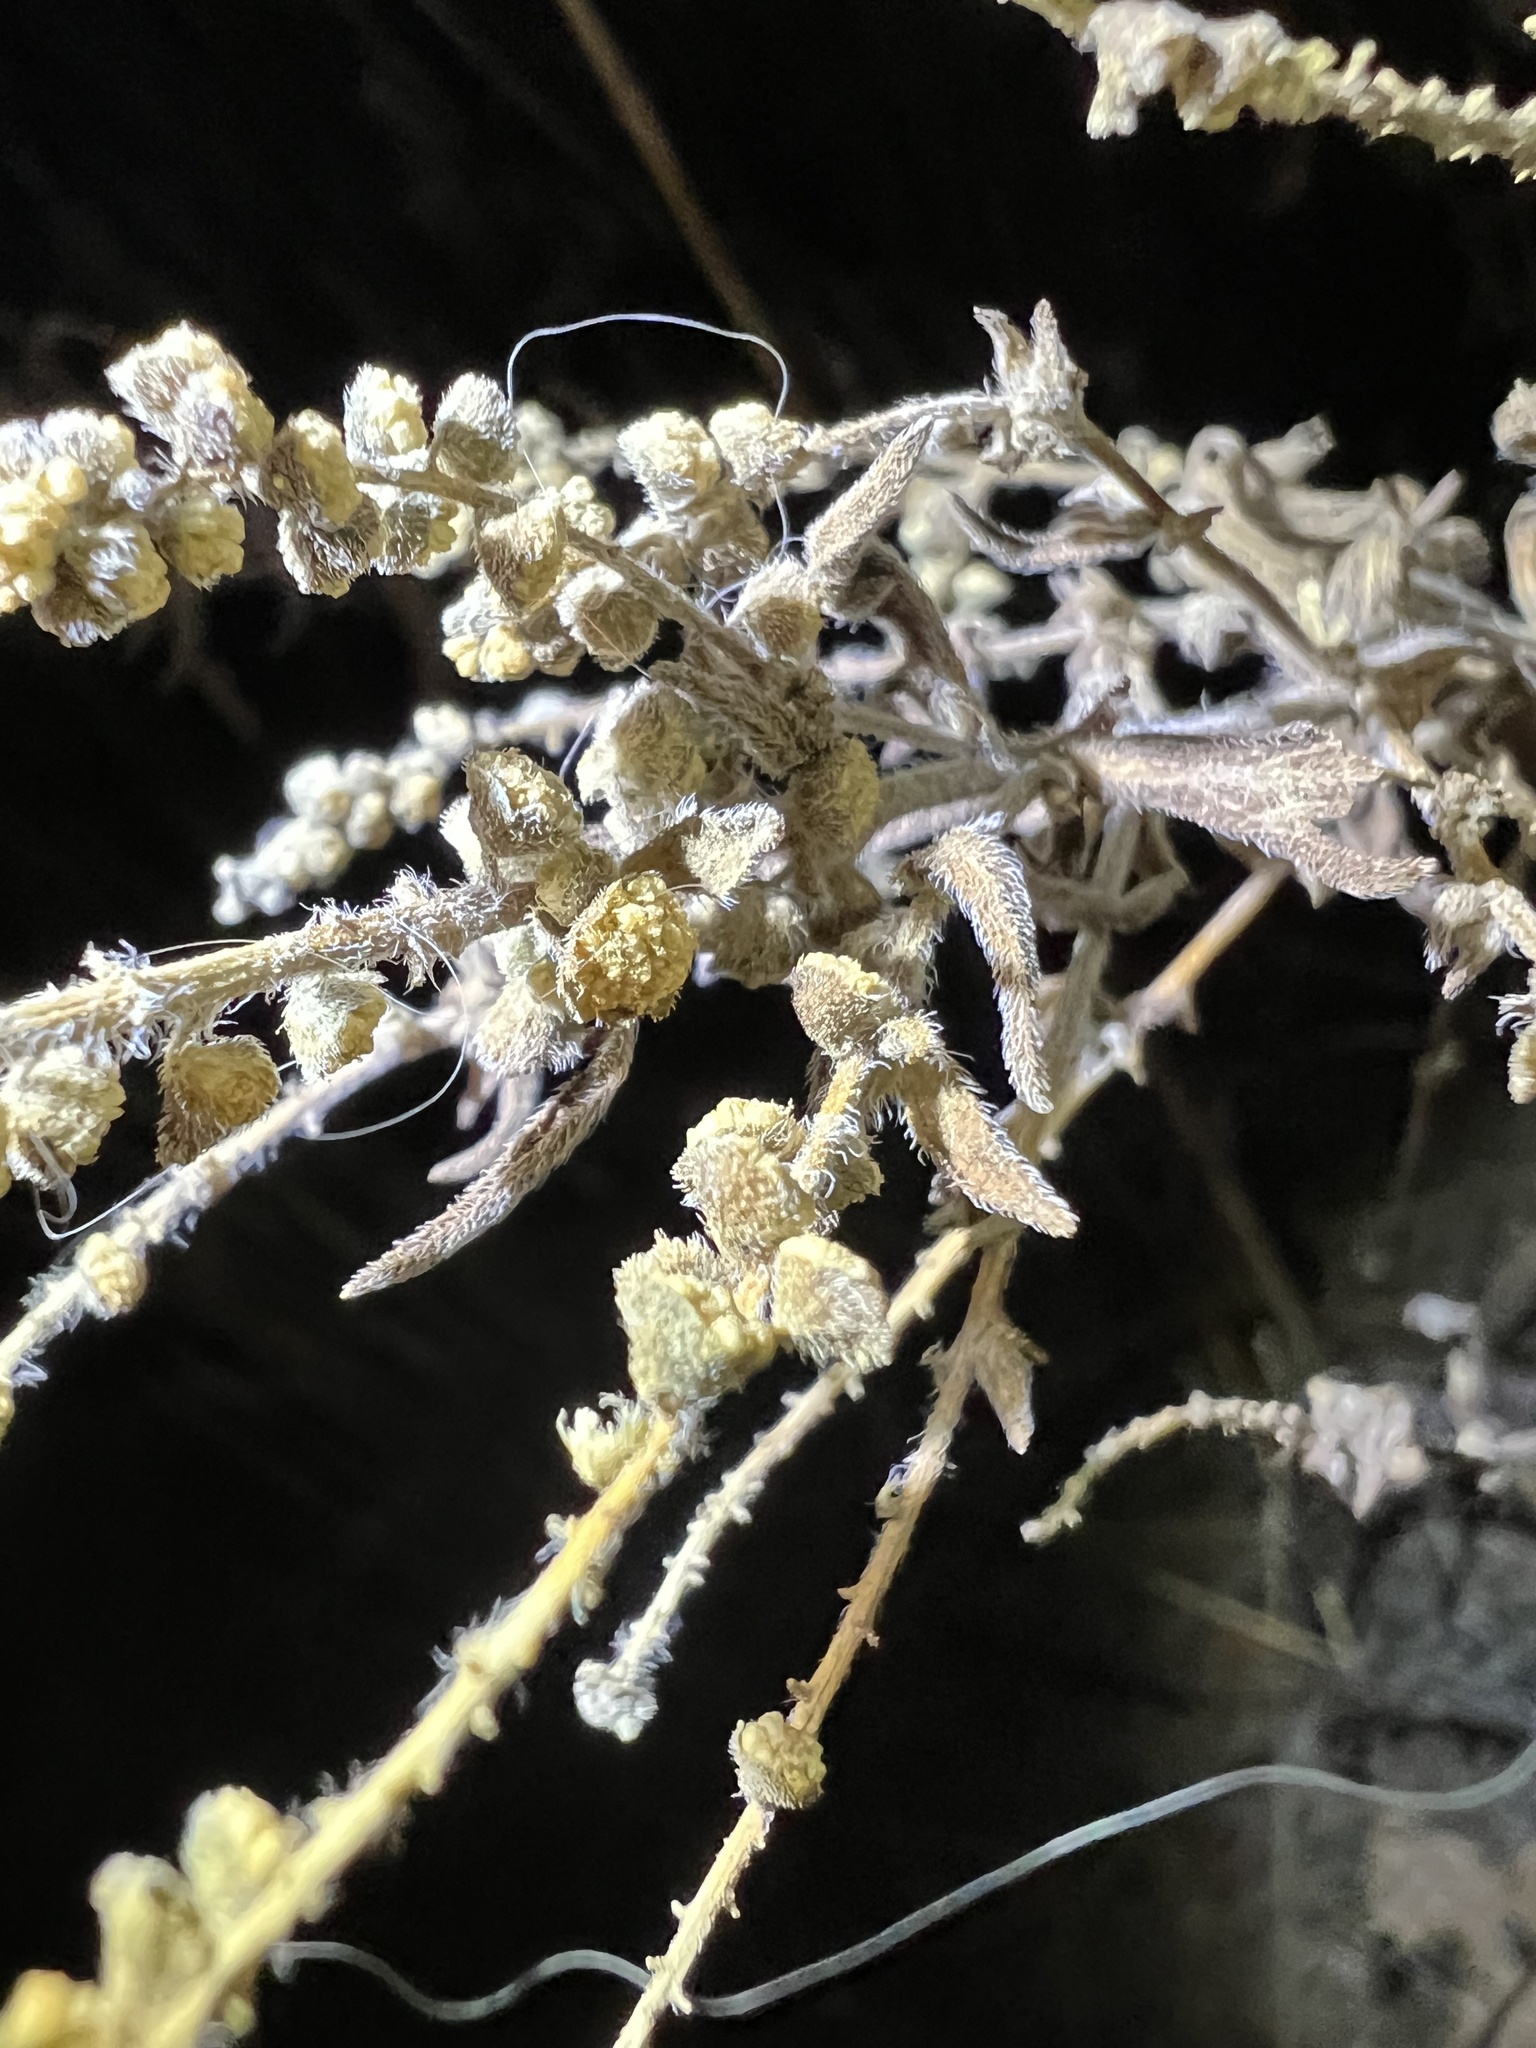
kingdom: Plantae
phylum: Tracheophyta
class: Magnoliopsida
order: Asterales
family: Asteraceae
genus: Artemisia
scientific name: Artemisia ludoviciana
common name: Western mugwort
